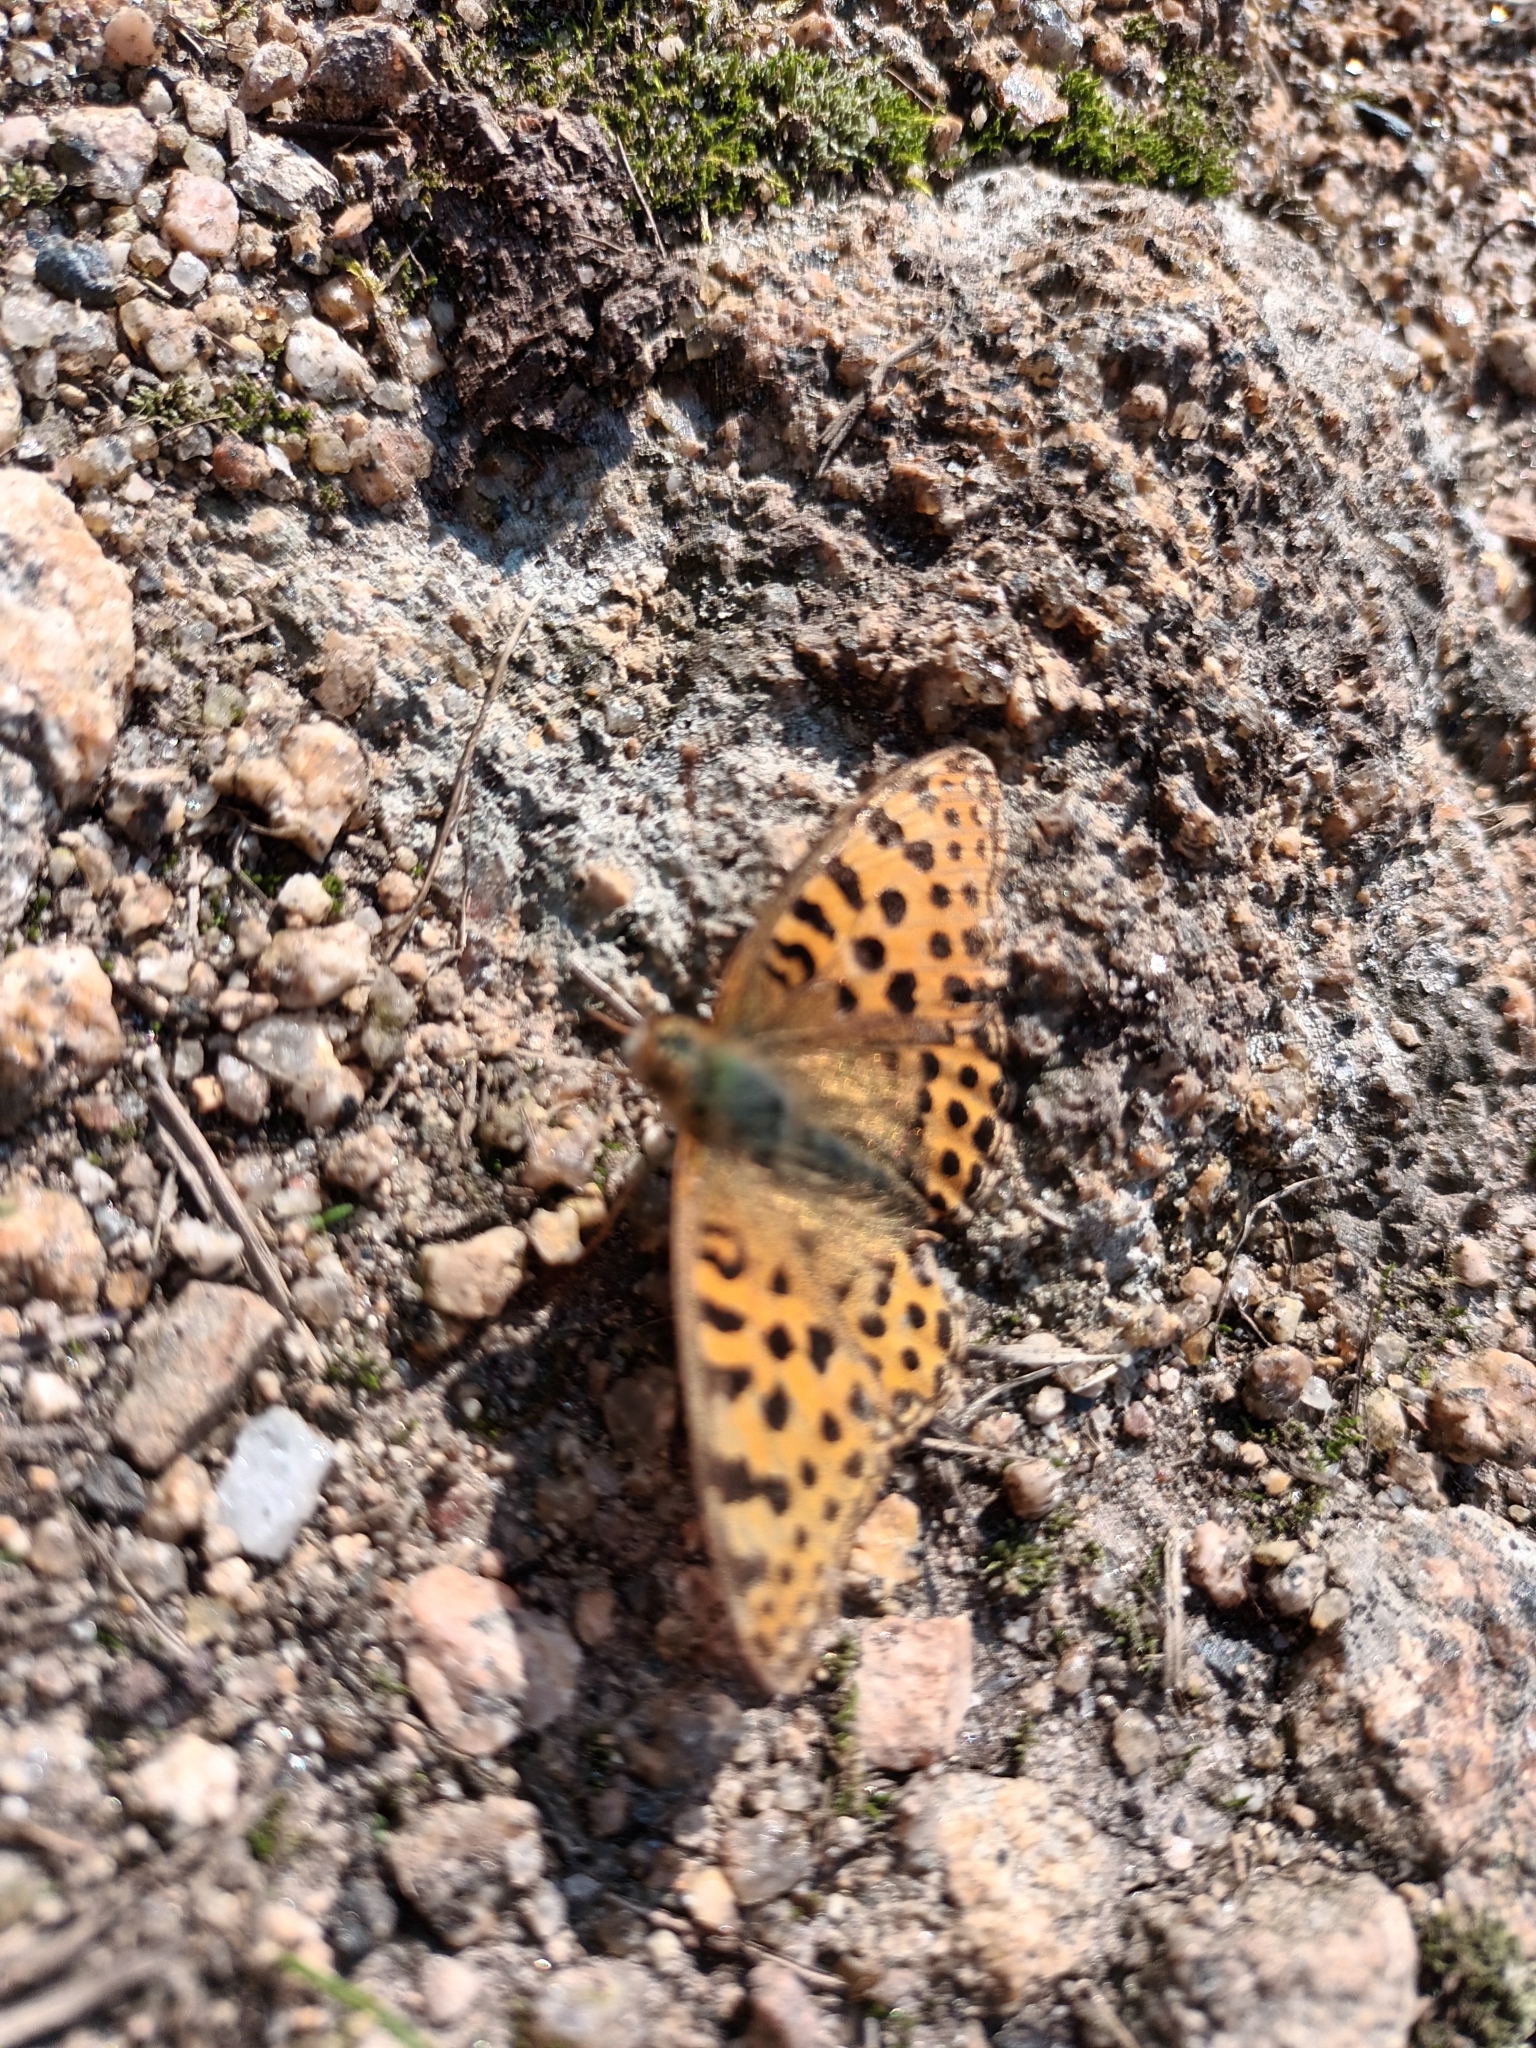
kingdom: Animalia
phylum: Arthropoda
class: Insecta
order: Lepidoptera
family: Nymphalidae
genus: Issoria
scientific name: Issoria lathonia
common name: Queen of spain fritillary
